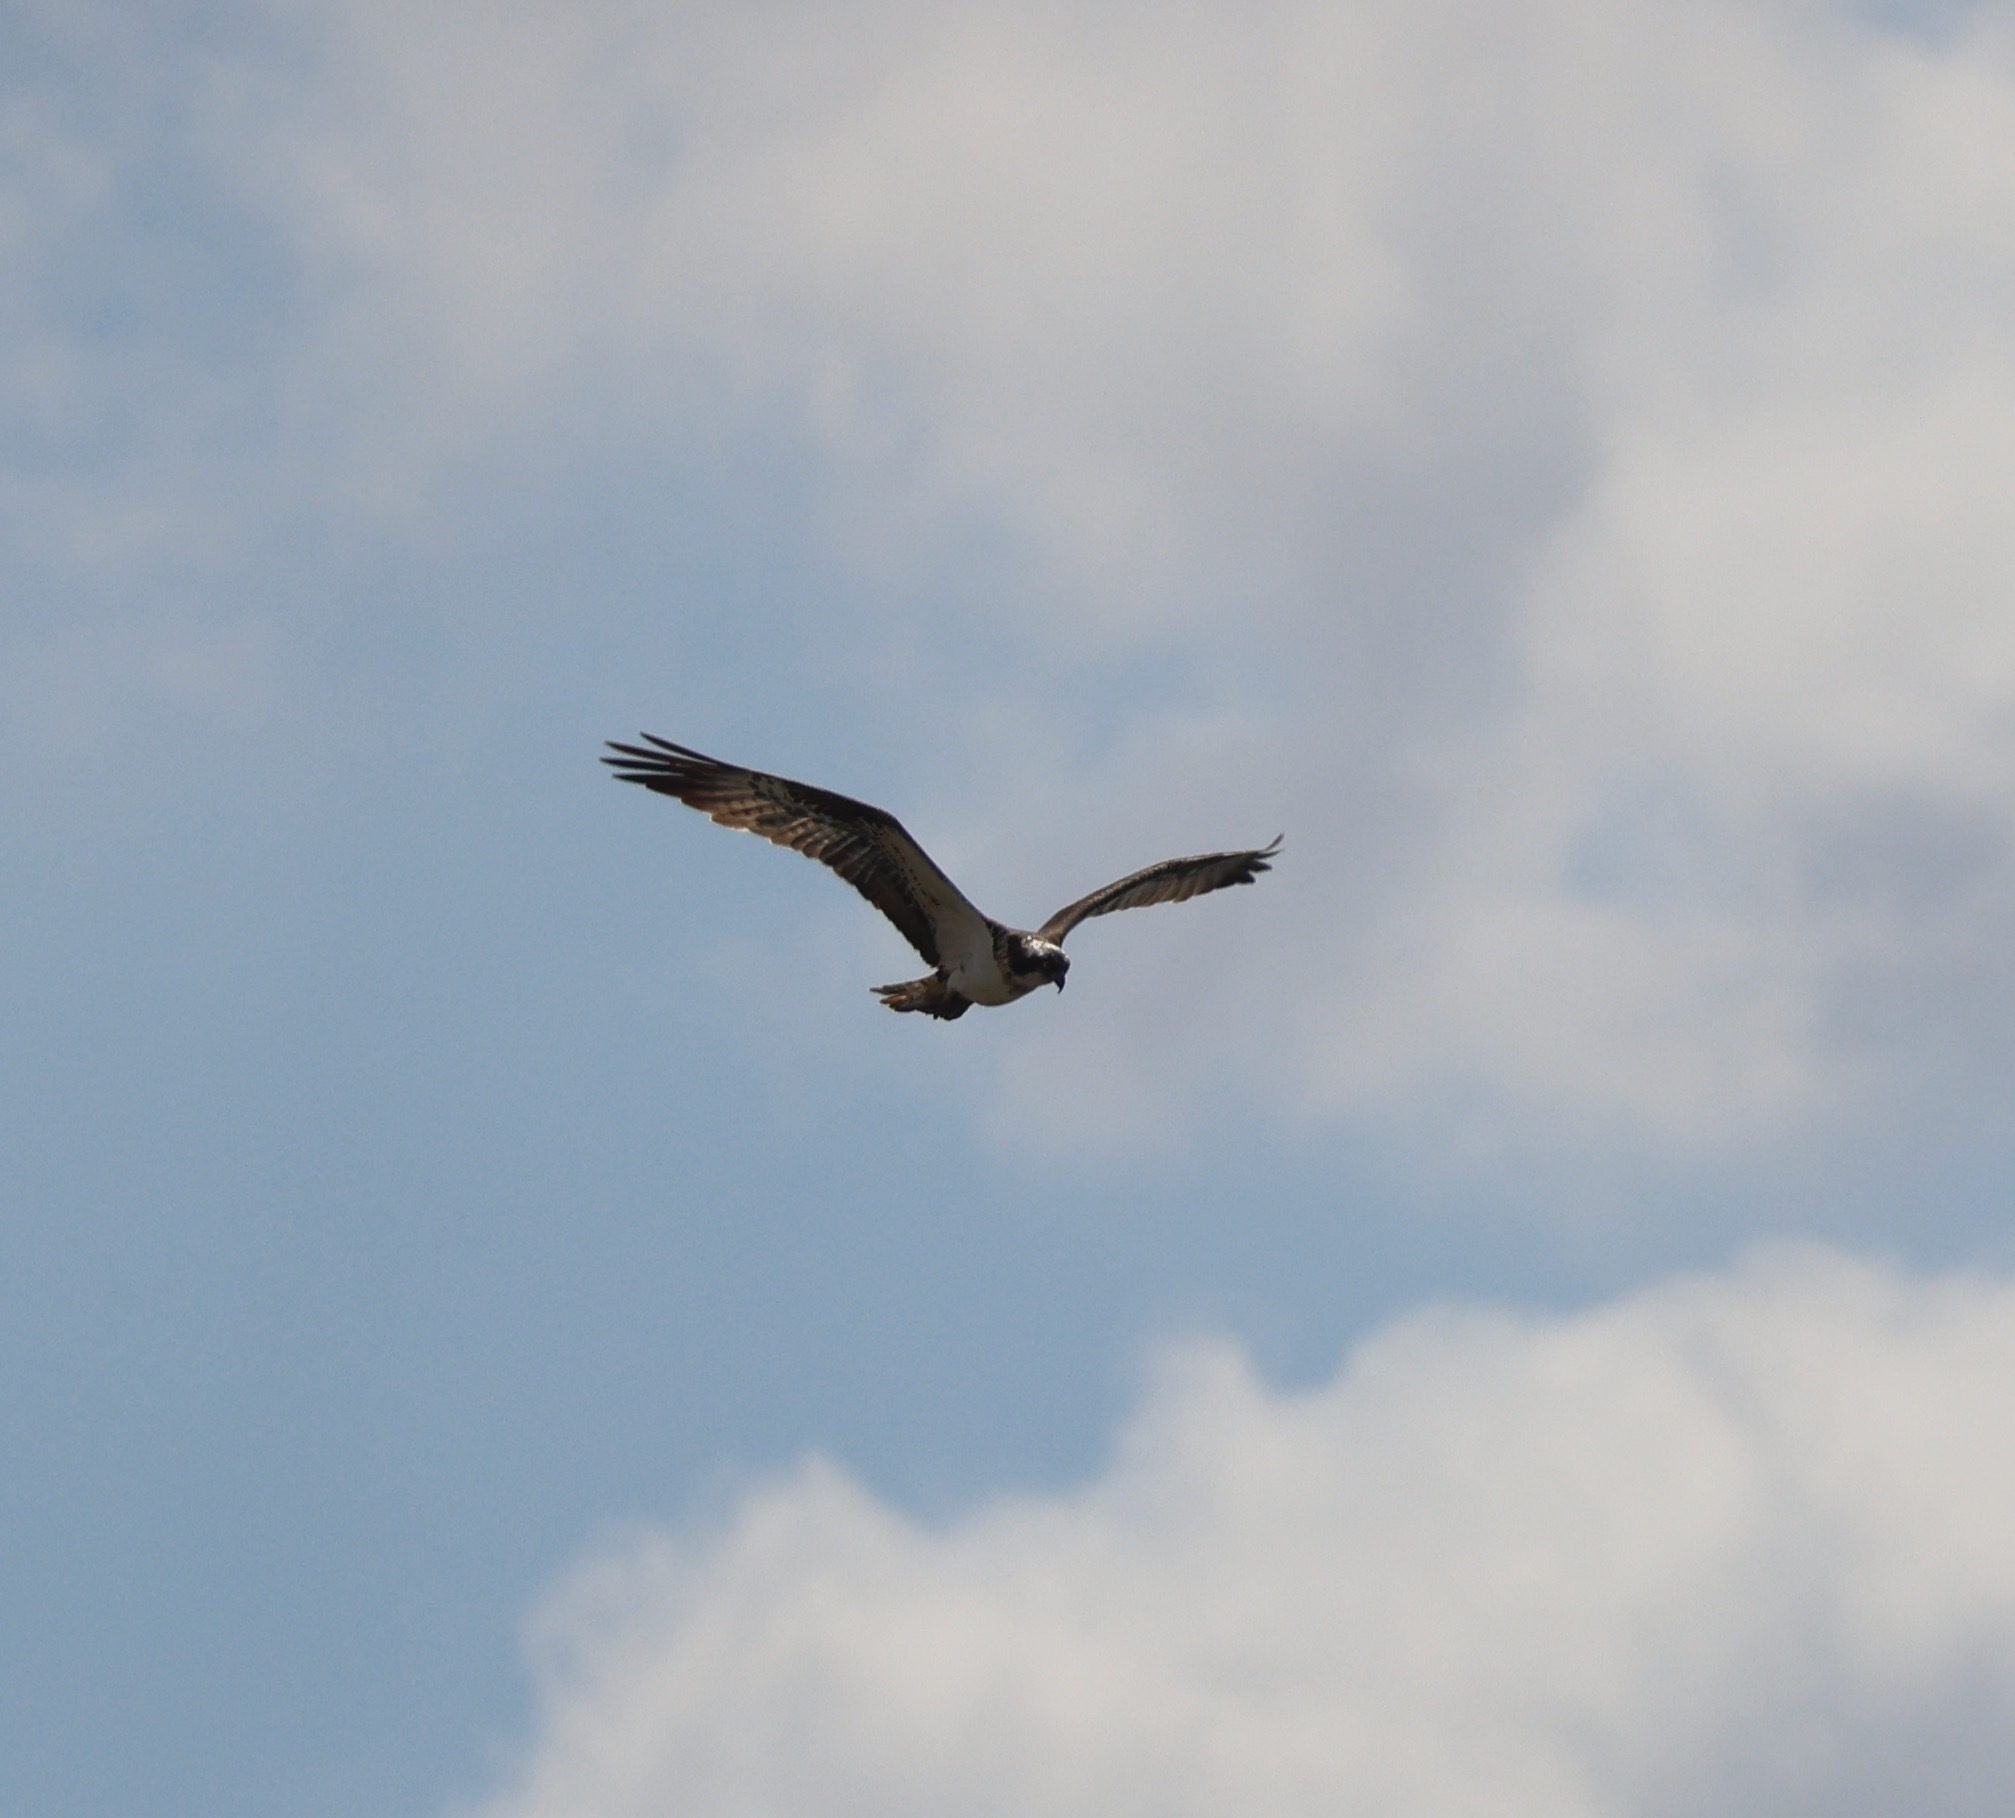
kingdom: Animalia
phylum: Chordata
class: Aves
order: Accipitriformes
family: Pandionidae
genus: Pandion
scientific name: Pandion haliaetus
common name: Osprey
